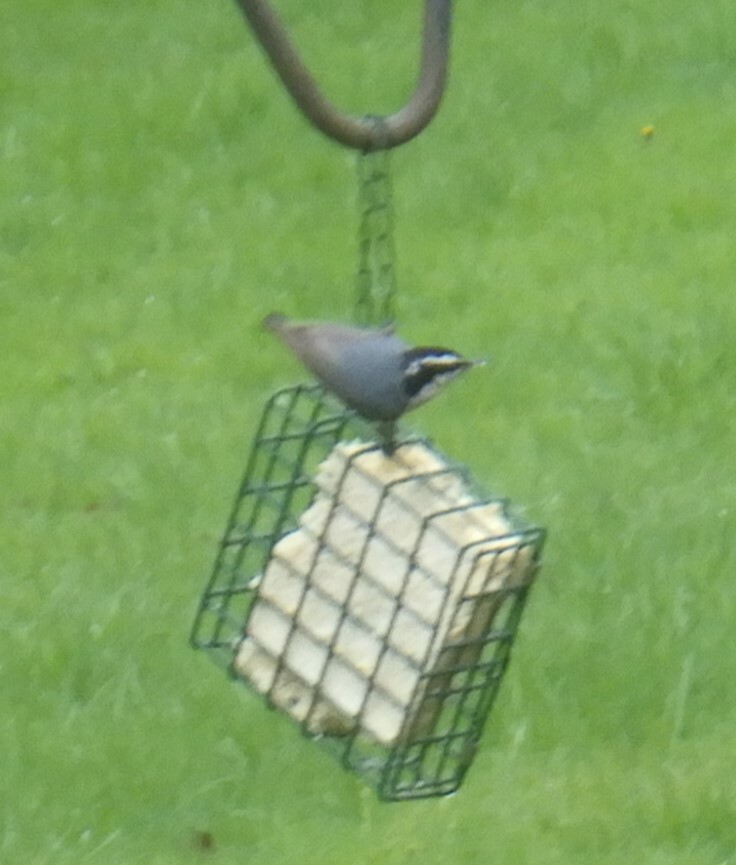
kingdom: Animalia
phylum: Chordata
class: Aves
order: Passeriformes
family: Sittidae
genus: Sitta
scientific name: Sitta canadensis
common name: Red-breasted nuthatch
